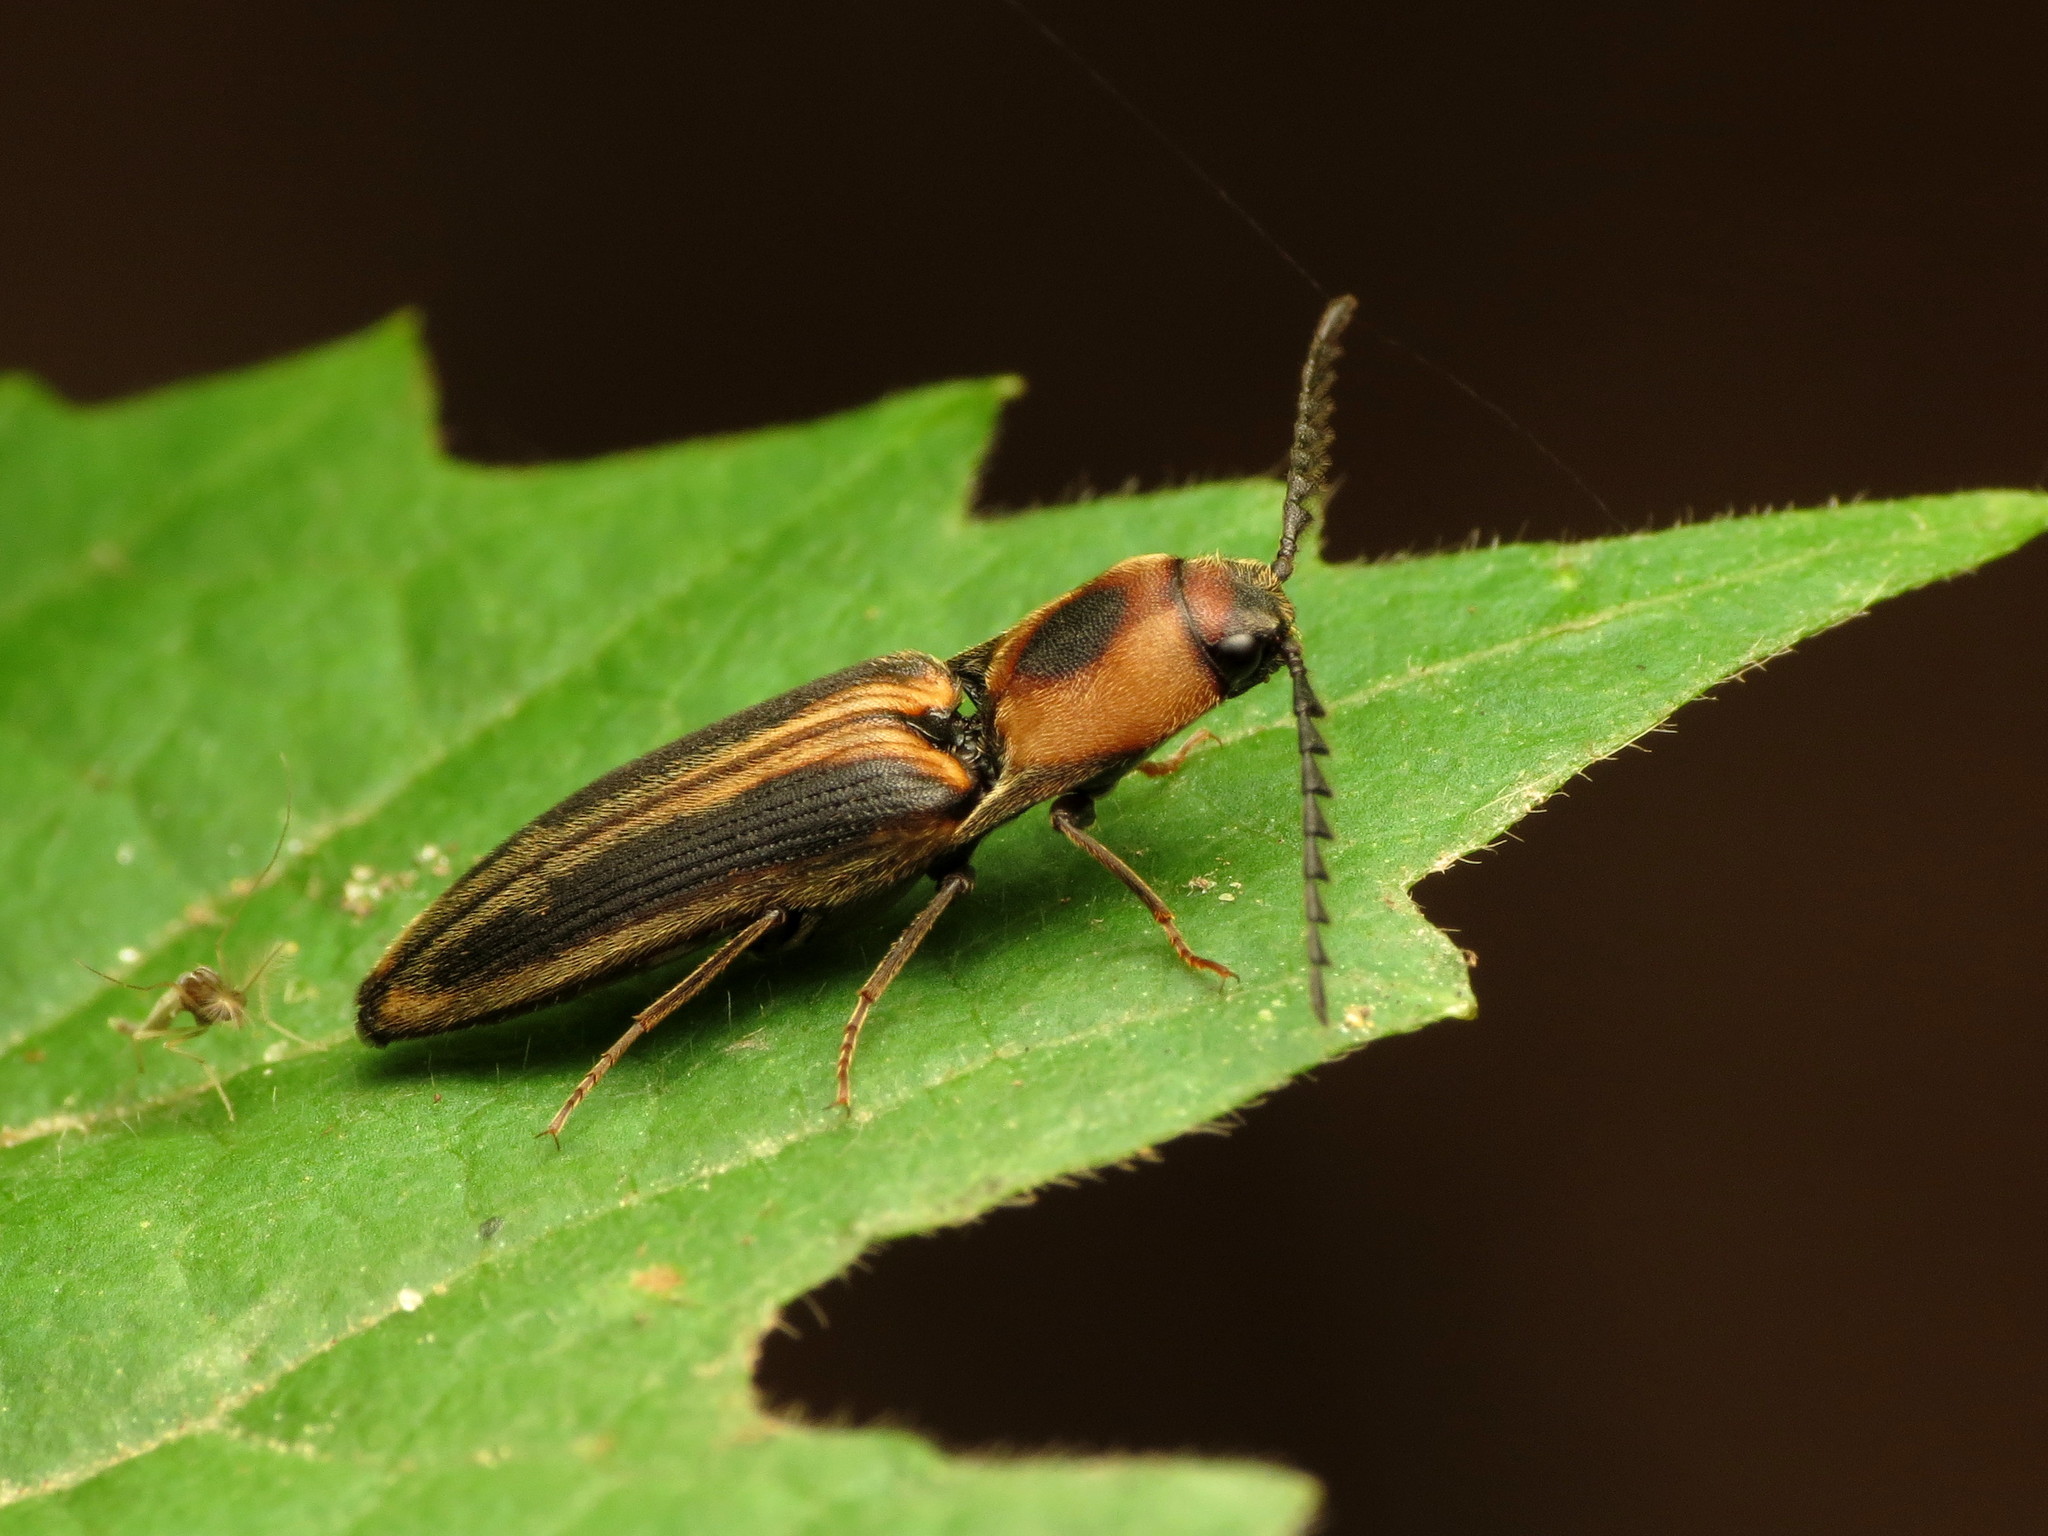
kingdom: Animalia
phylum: Arthropoda
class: Insecta
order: Coleoptera
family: Elateridae
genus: Megapenthes
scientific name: Megapenthes
